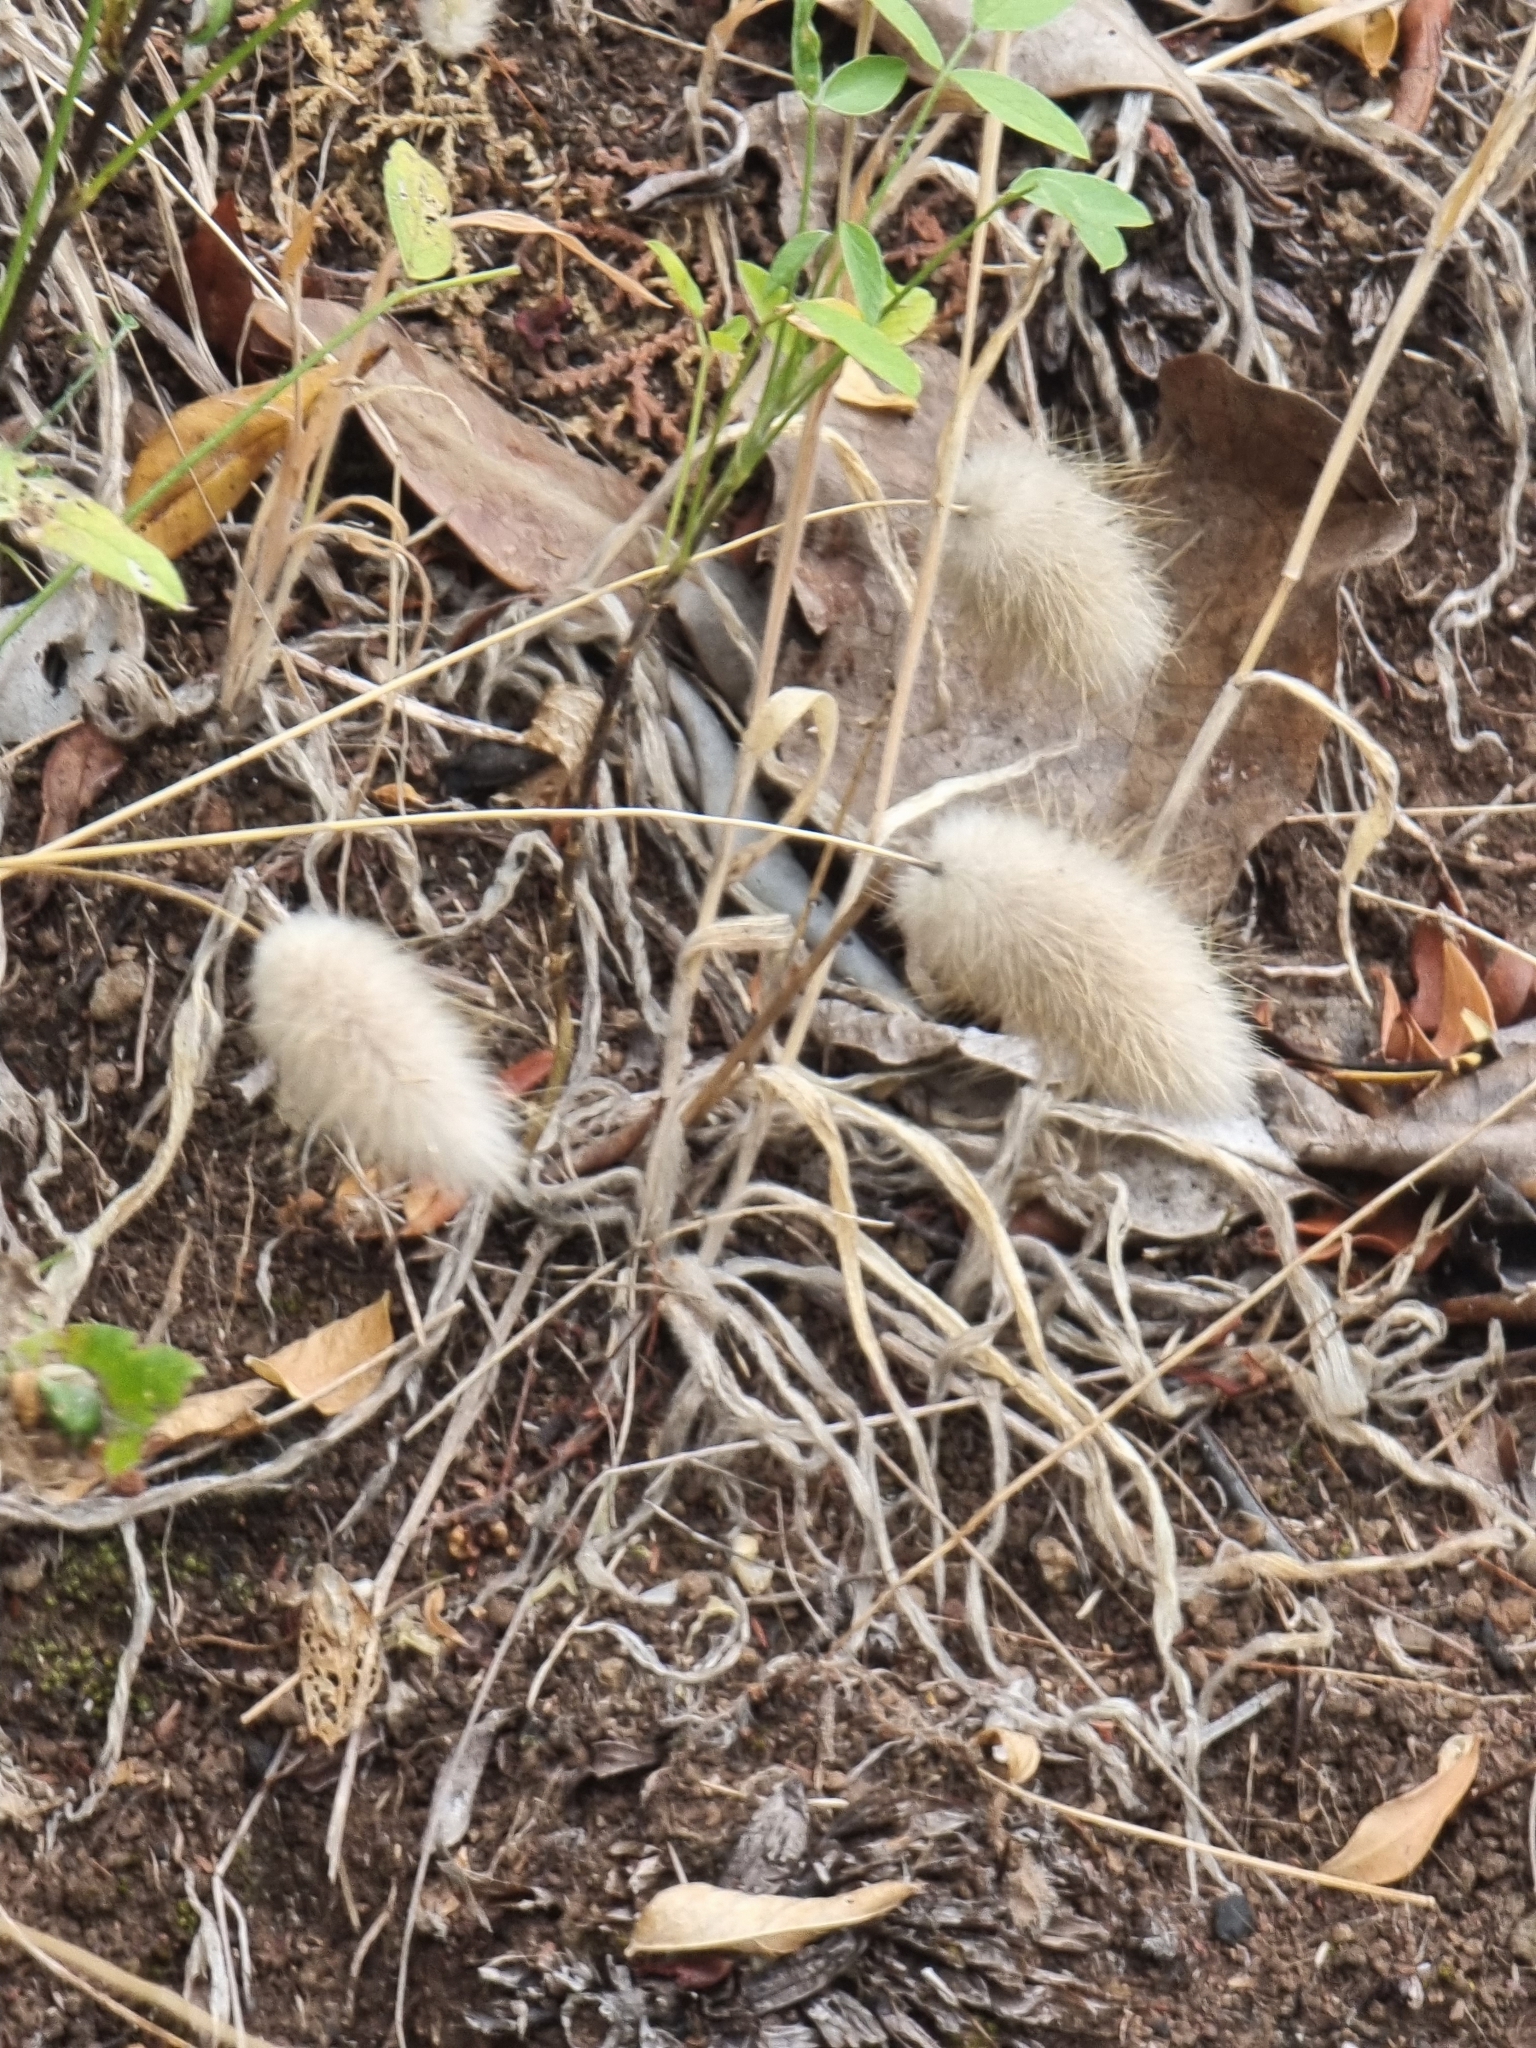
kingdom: Plantae
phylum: Tracheophyta
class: Liliopsida
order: Poales
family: Poaceae
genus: Lagurus
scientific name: Lagurus ovatus
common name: Hare's-tail
